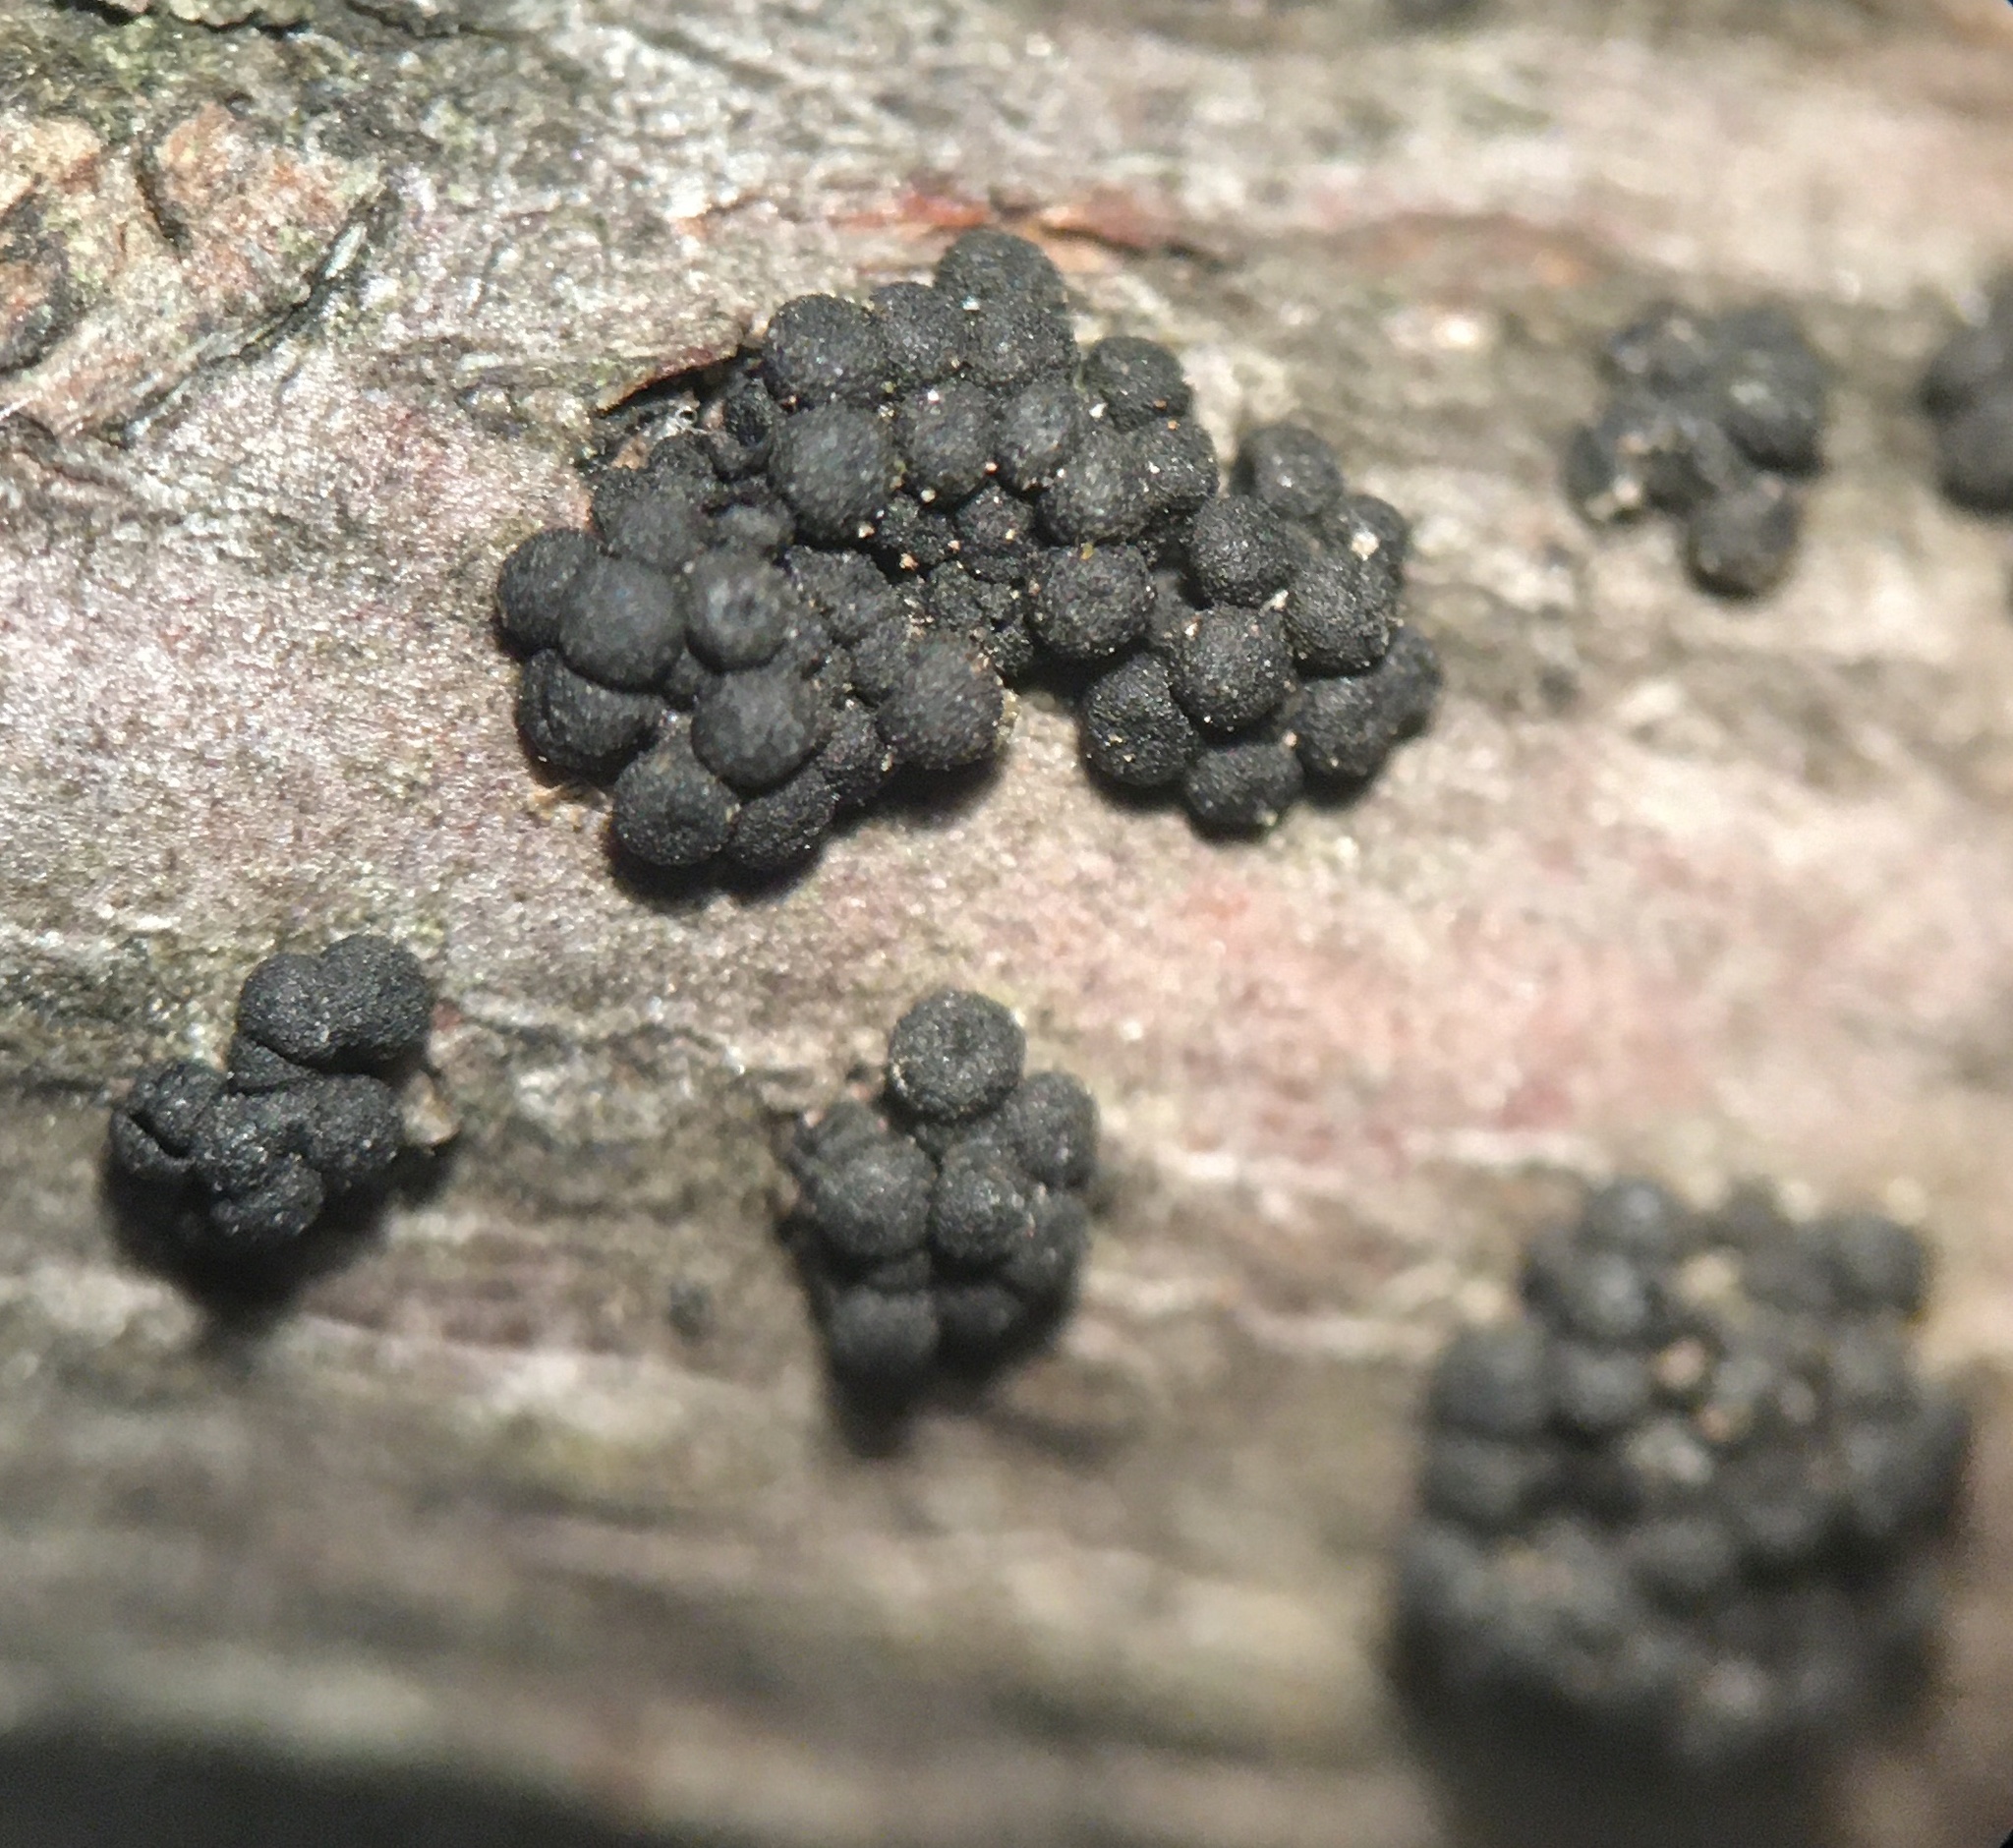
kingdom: Fungi
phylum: Ascomycota
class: Sordariomycetes
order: Coronophorales
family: Nitschkiaceae
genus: Fracchiaea
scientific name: Fracchiaea broomeana
